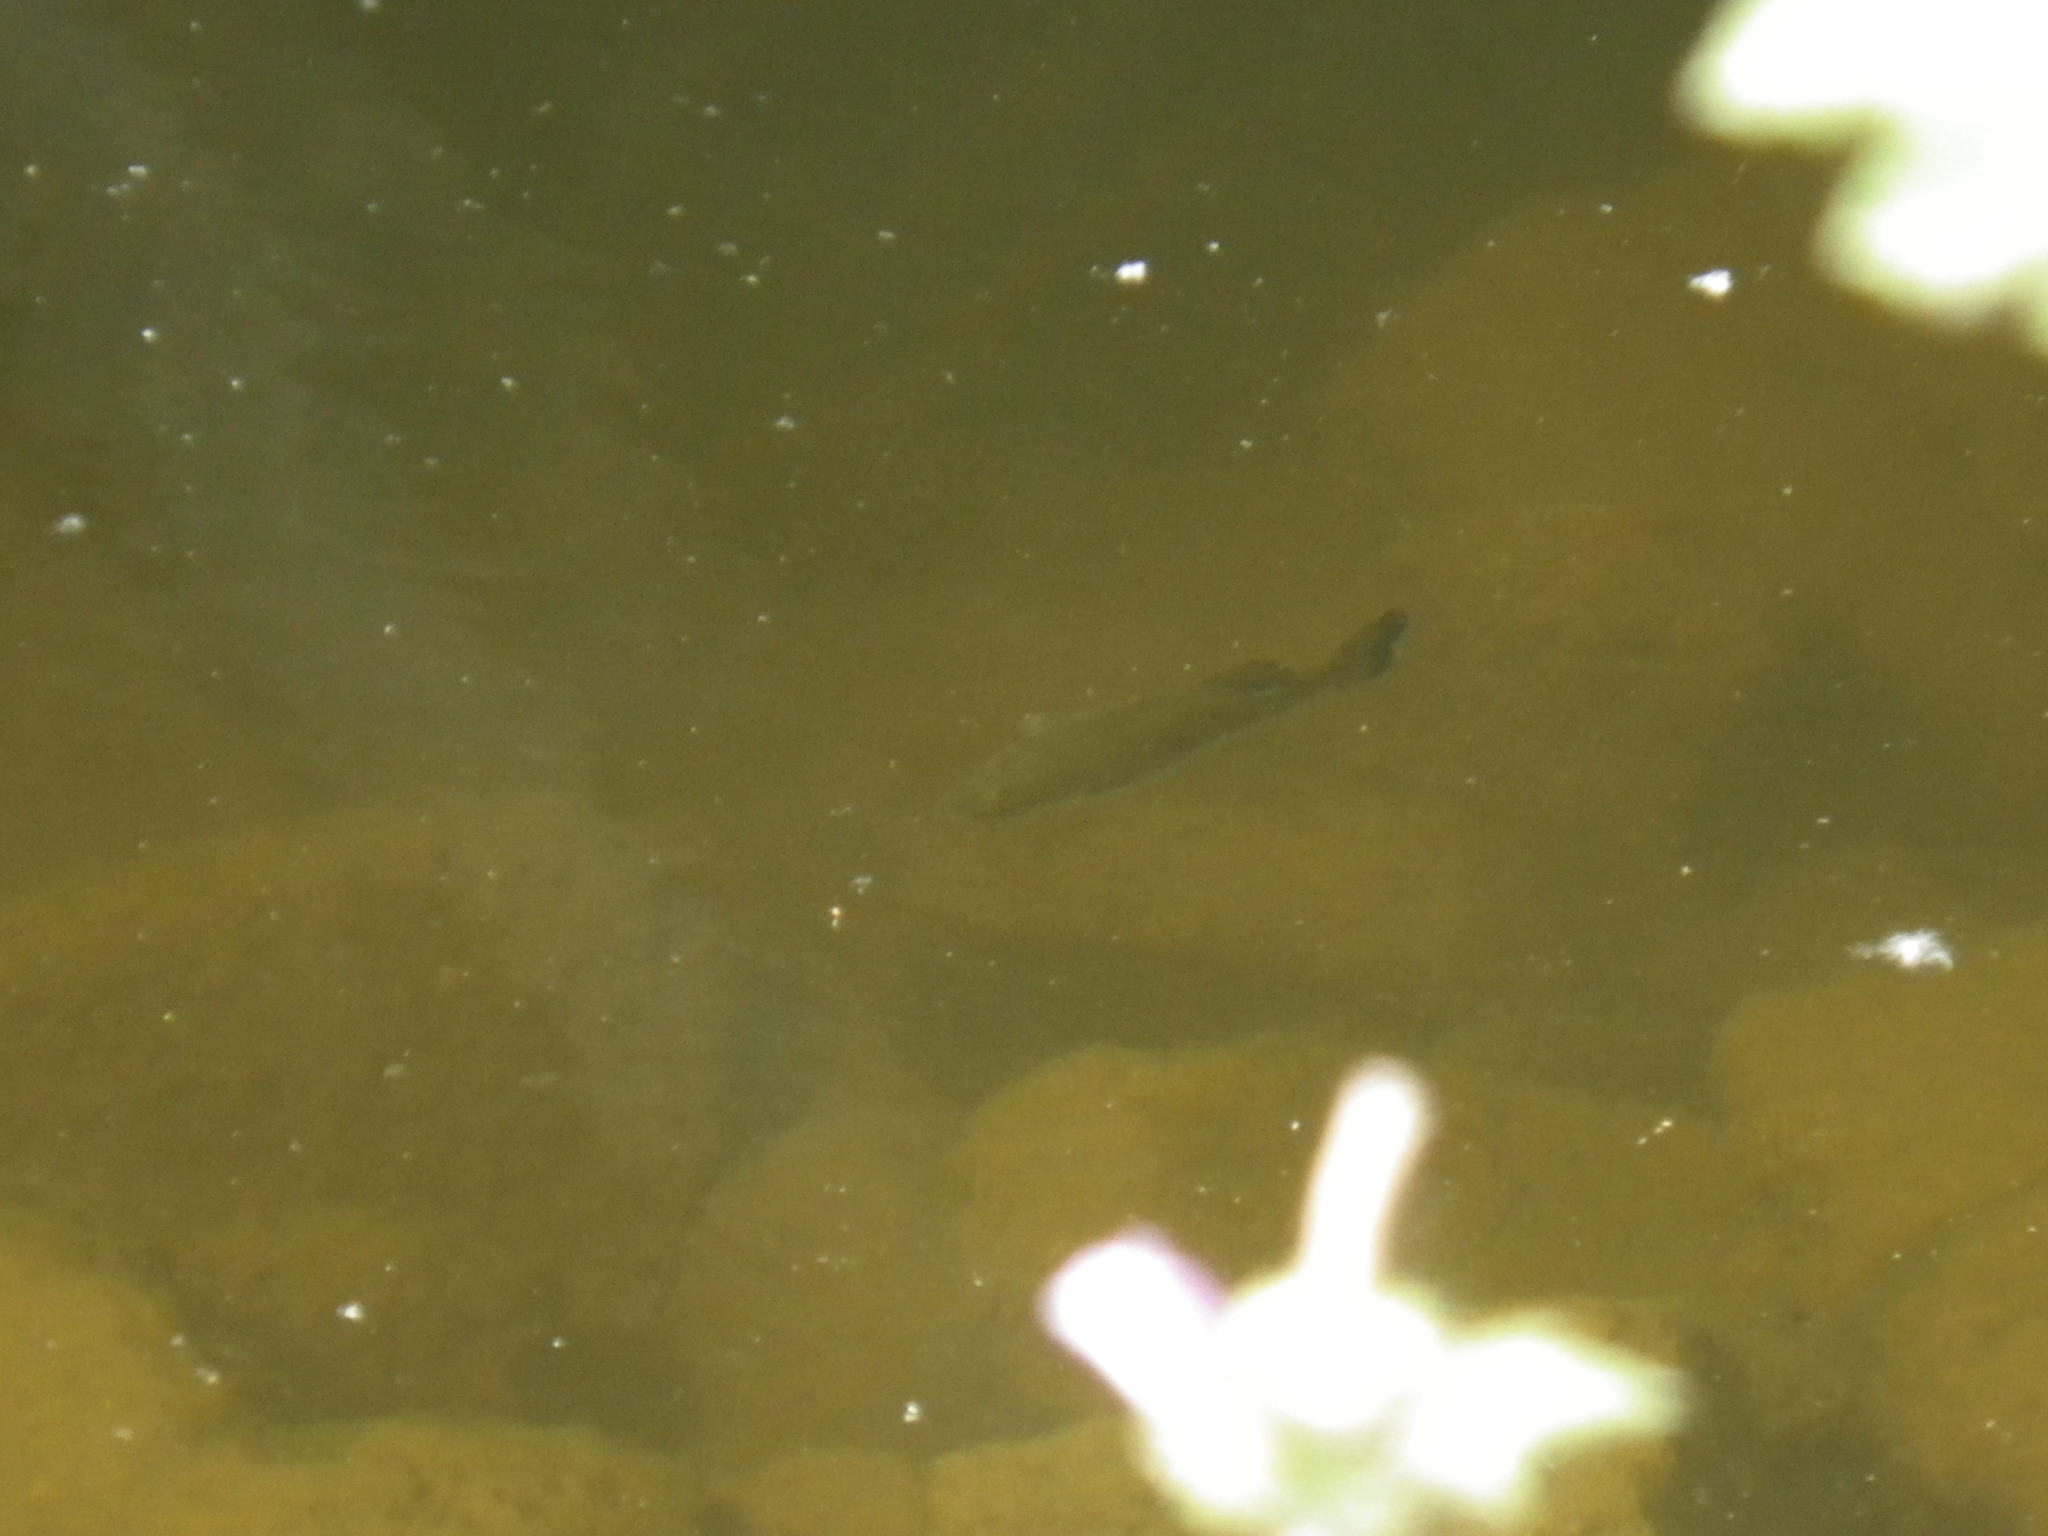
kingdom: Animalia
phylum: Chordata
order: Perciformes
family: Centrarchidae
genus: Micropterus
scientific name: Micropterus
